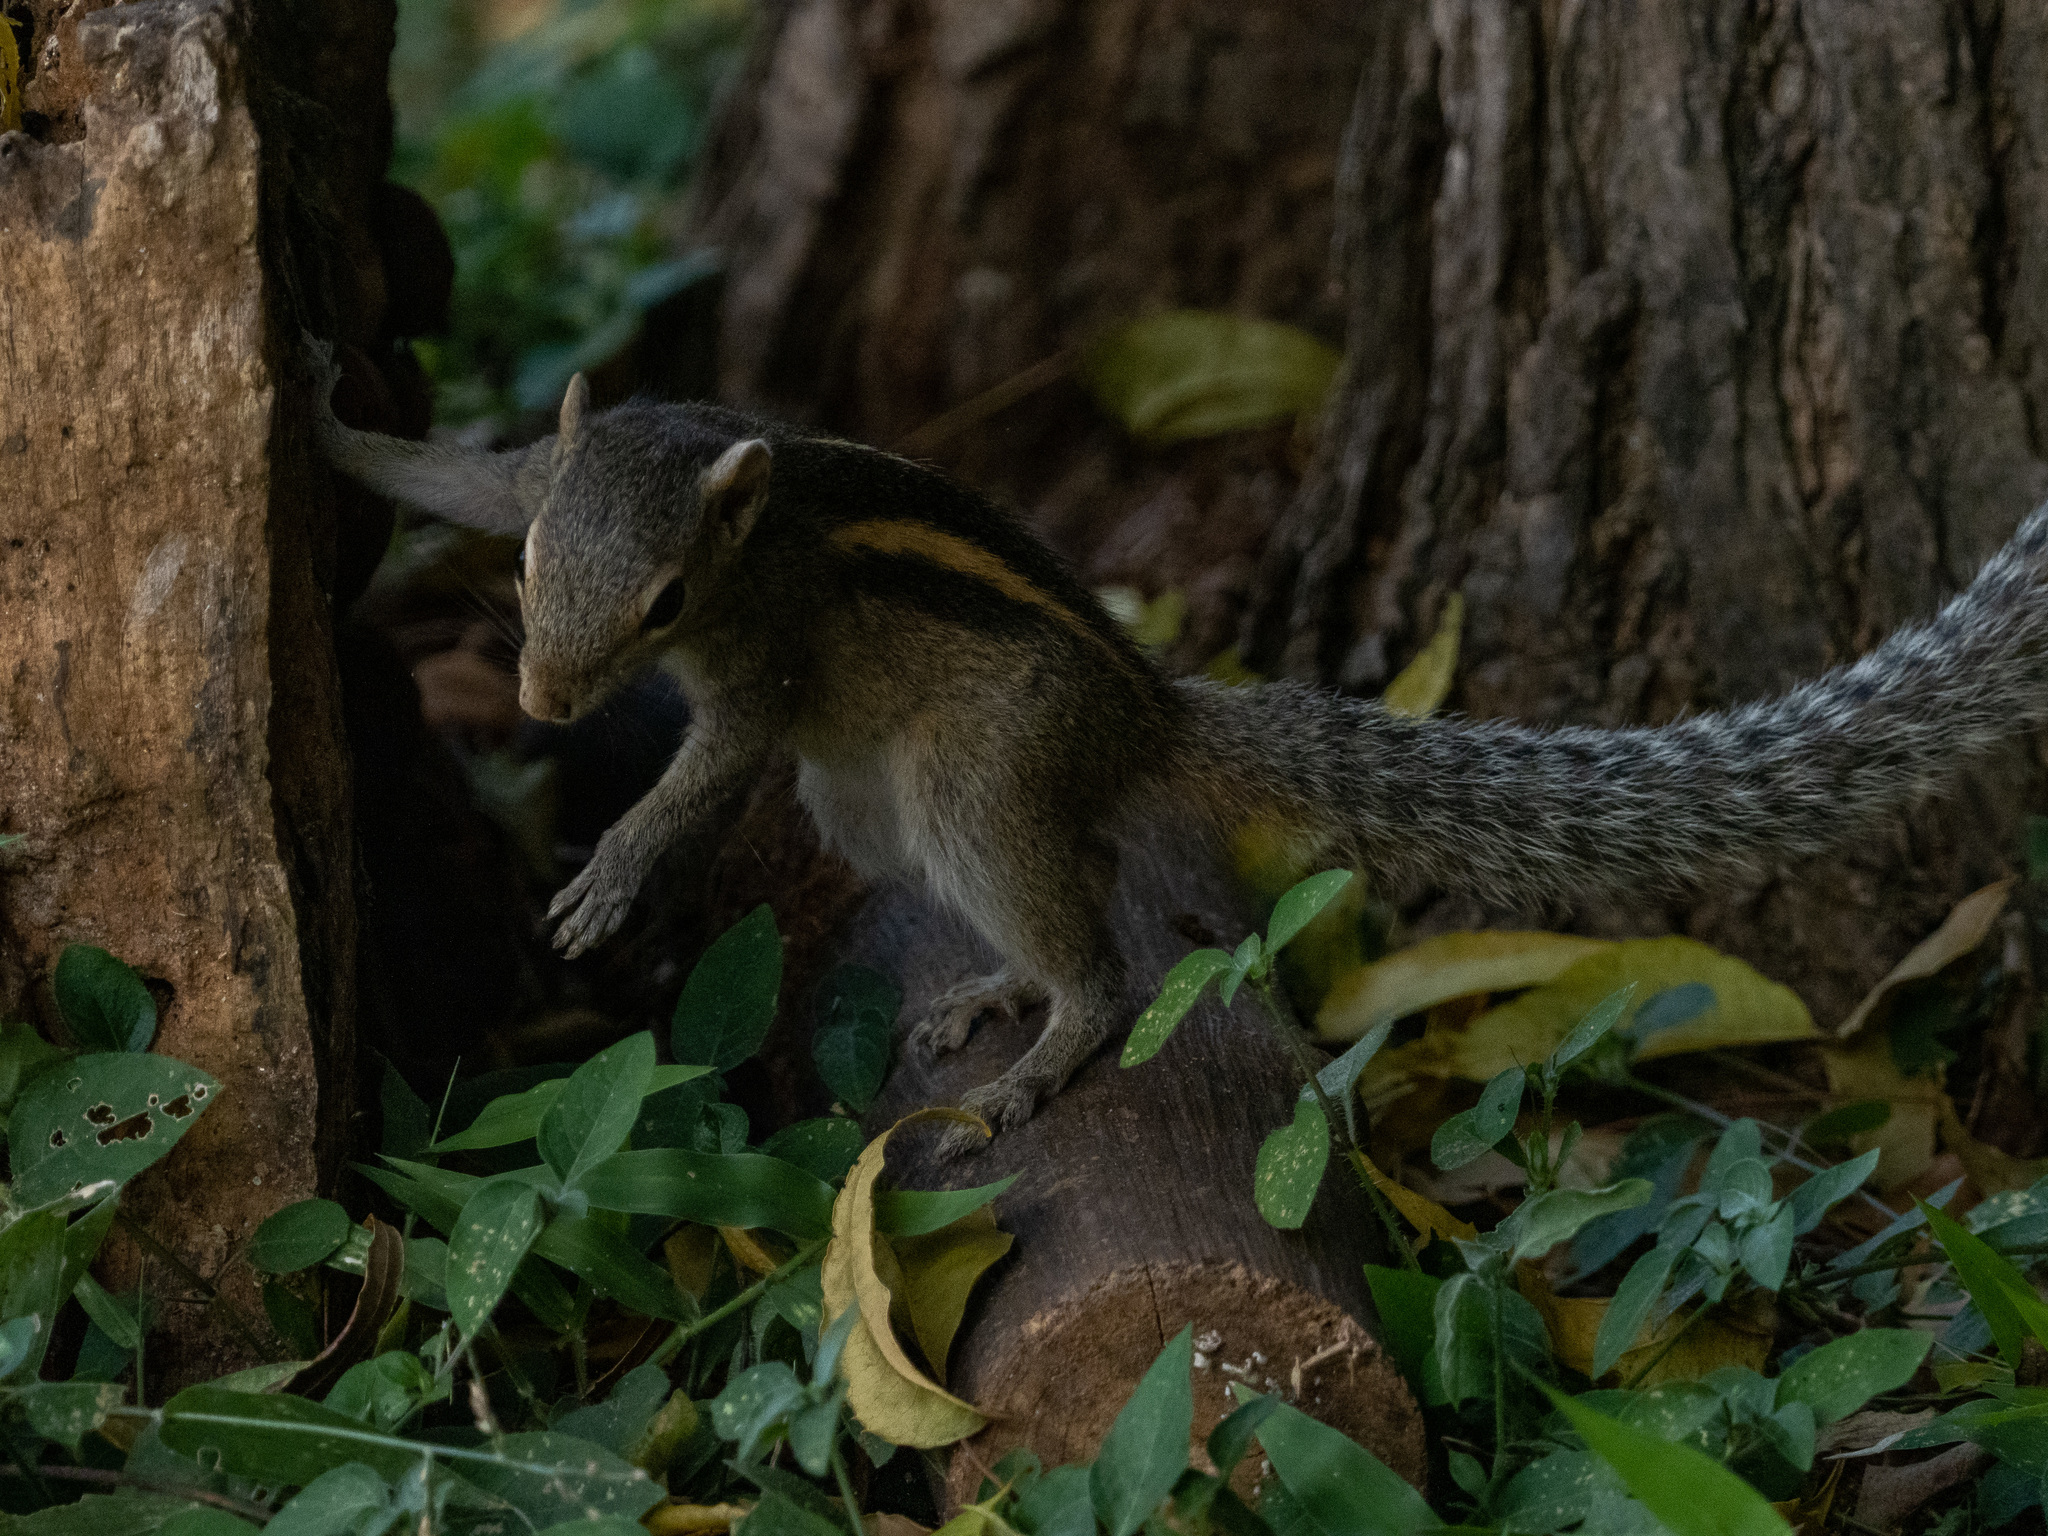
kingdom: Animalia
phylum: Chordata
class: Mammalia
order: Rodentia
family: Sciuridae
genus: Funambulus
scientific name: Funambulus palmarum
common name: Indian palm squirrel
